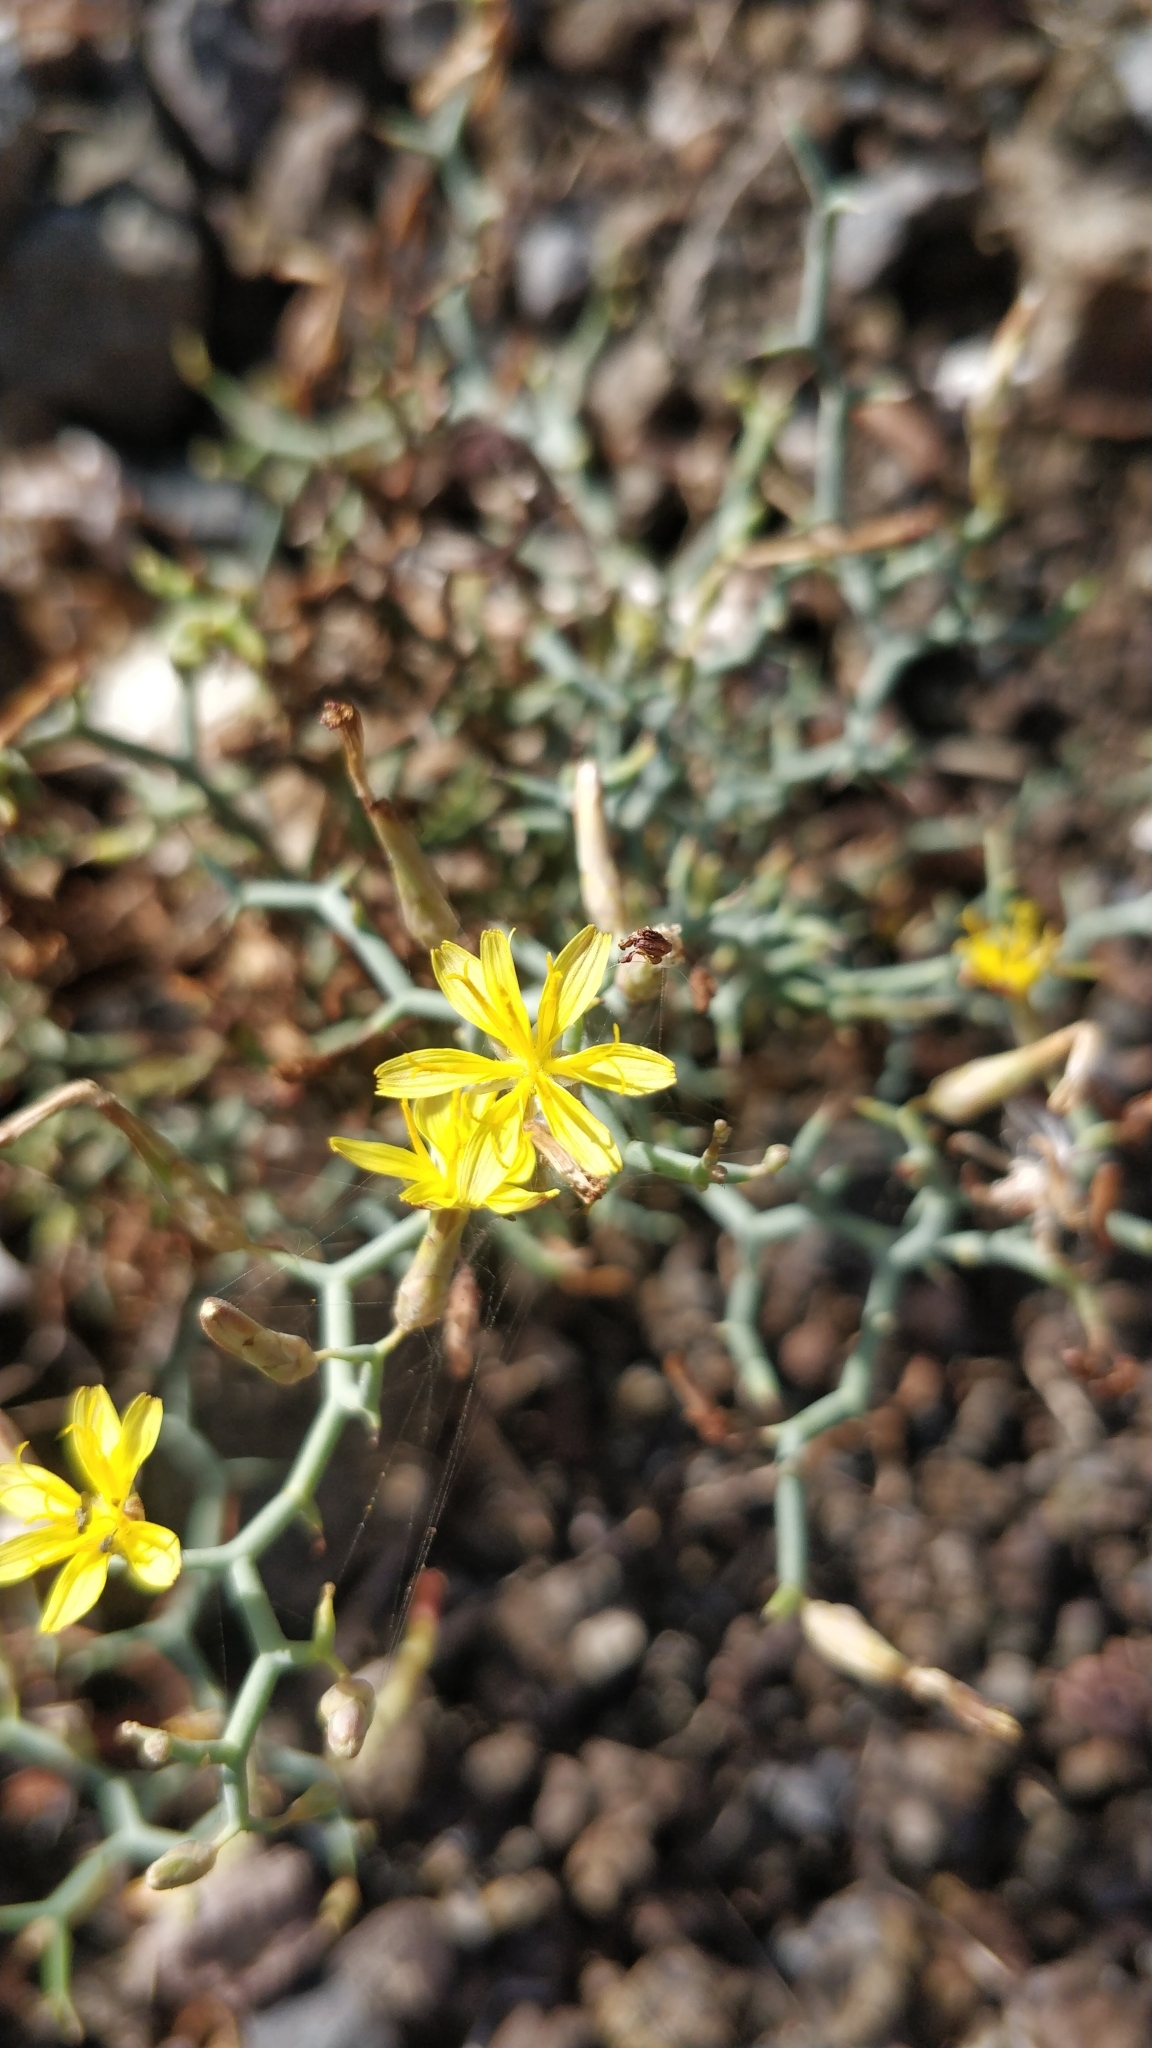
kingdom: Plantae
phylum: Tracheophyta
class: Magnoliopsida
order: Asterales
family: Asteraceae
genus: Launaea
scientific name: Launaea arborescens
